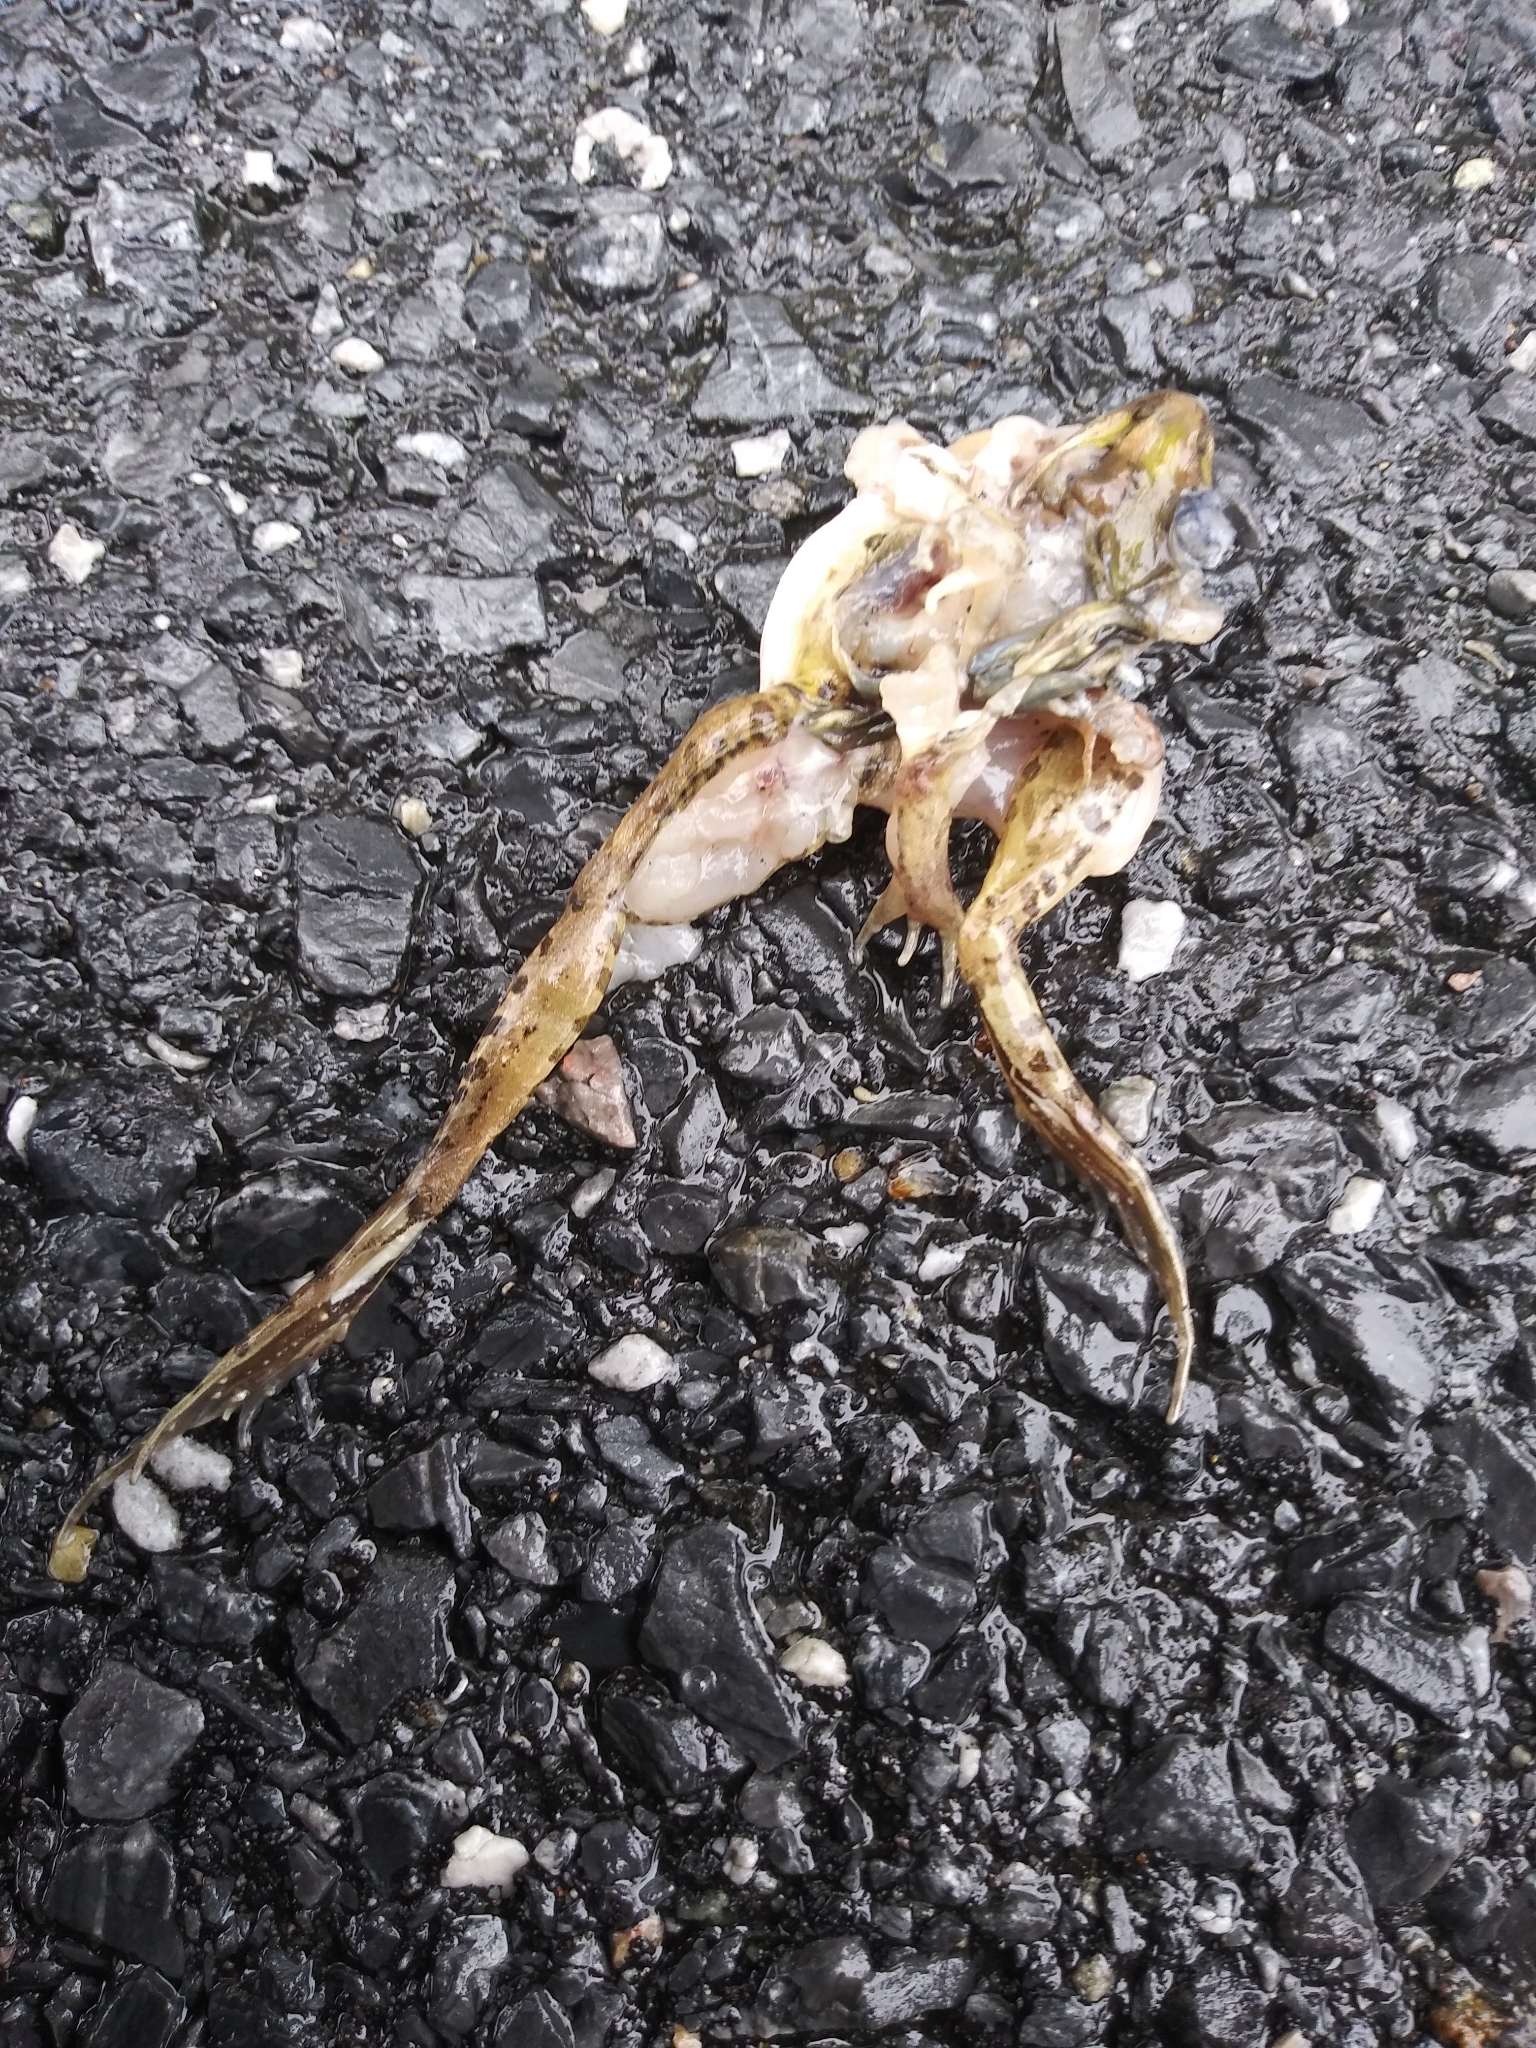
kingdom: Animalia
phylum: Chordata
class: Amphibia
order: Anura
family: Ranidae
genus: Lithobates
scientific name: Lithobates sphenocephalus
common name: Southern leopard frog
